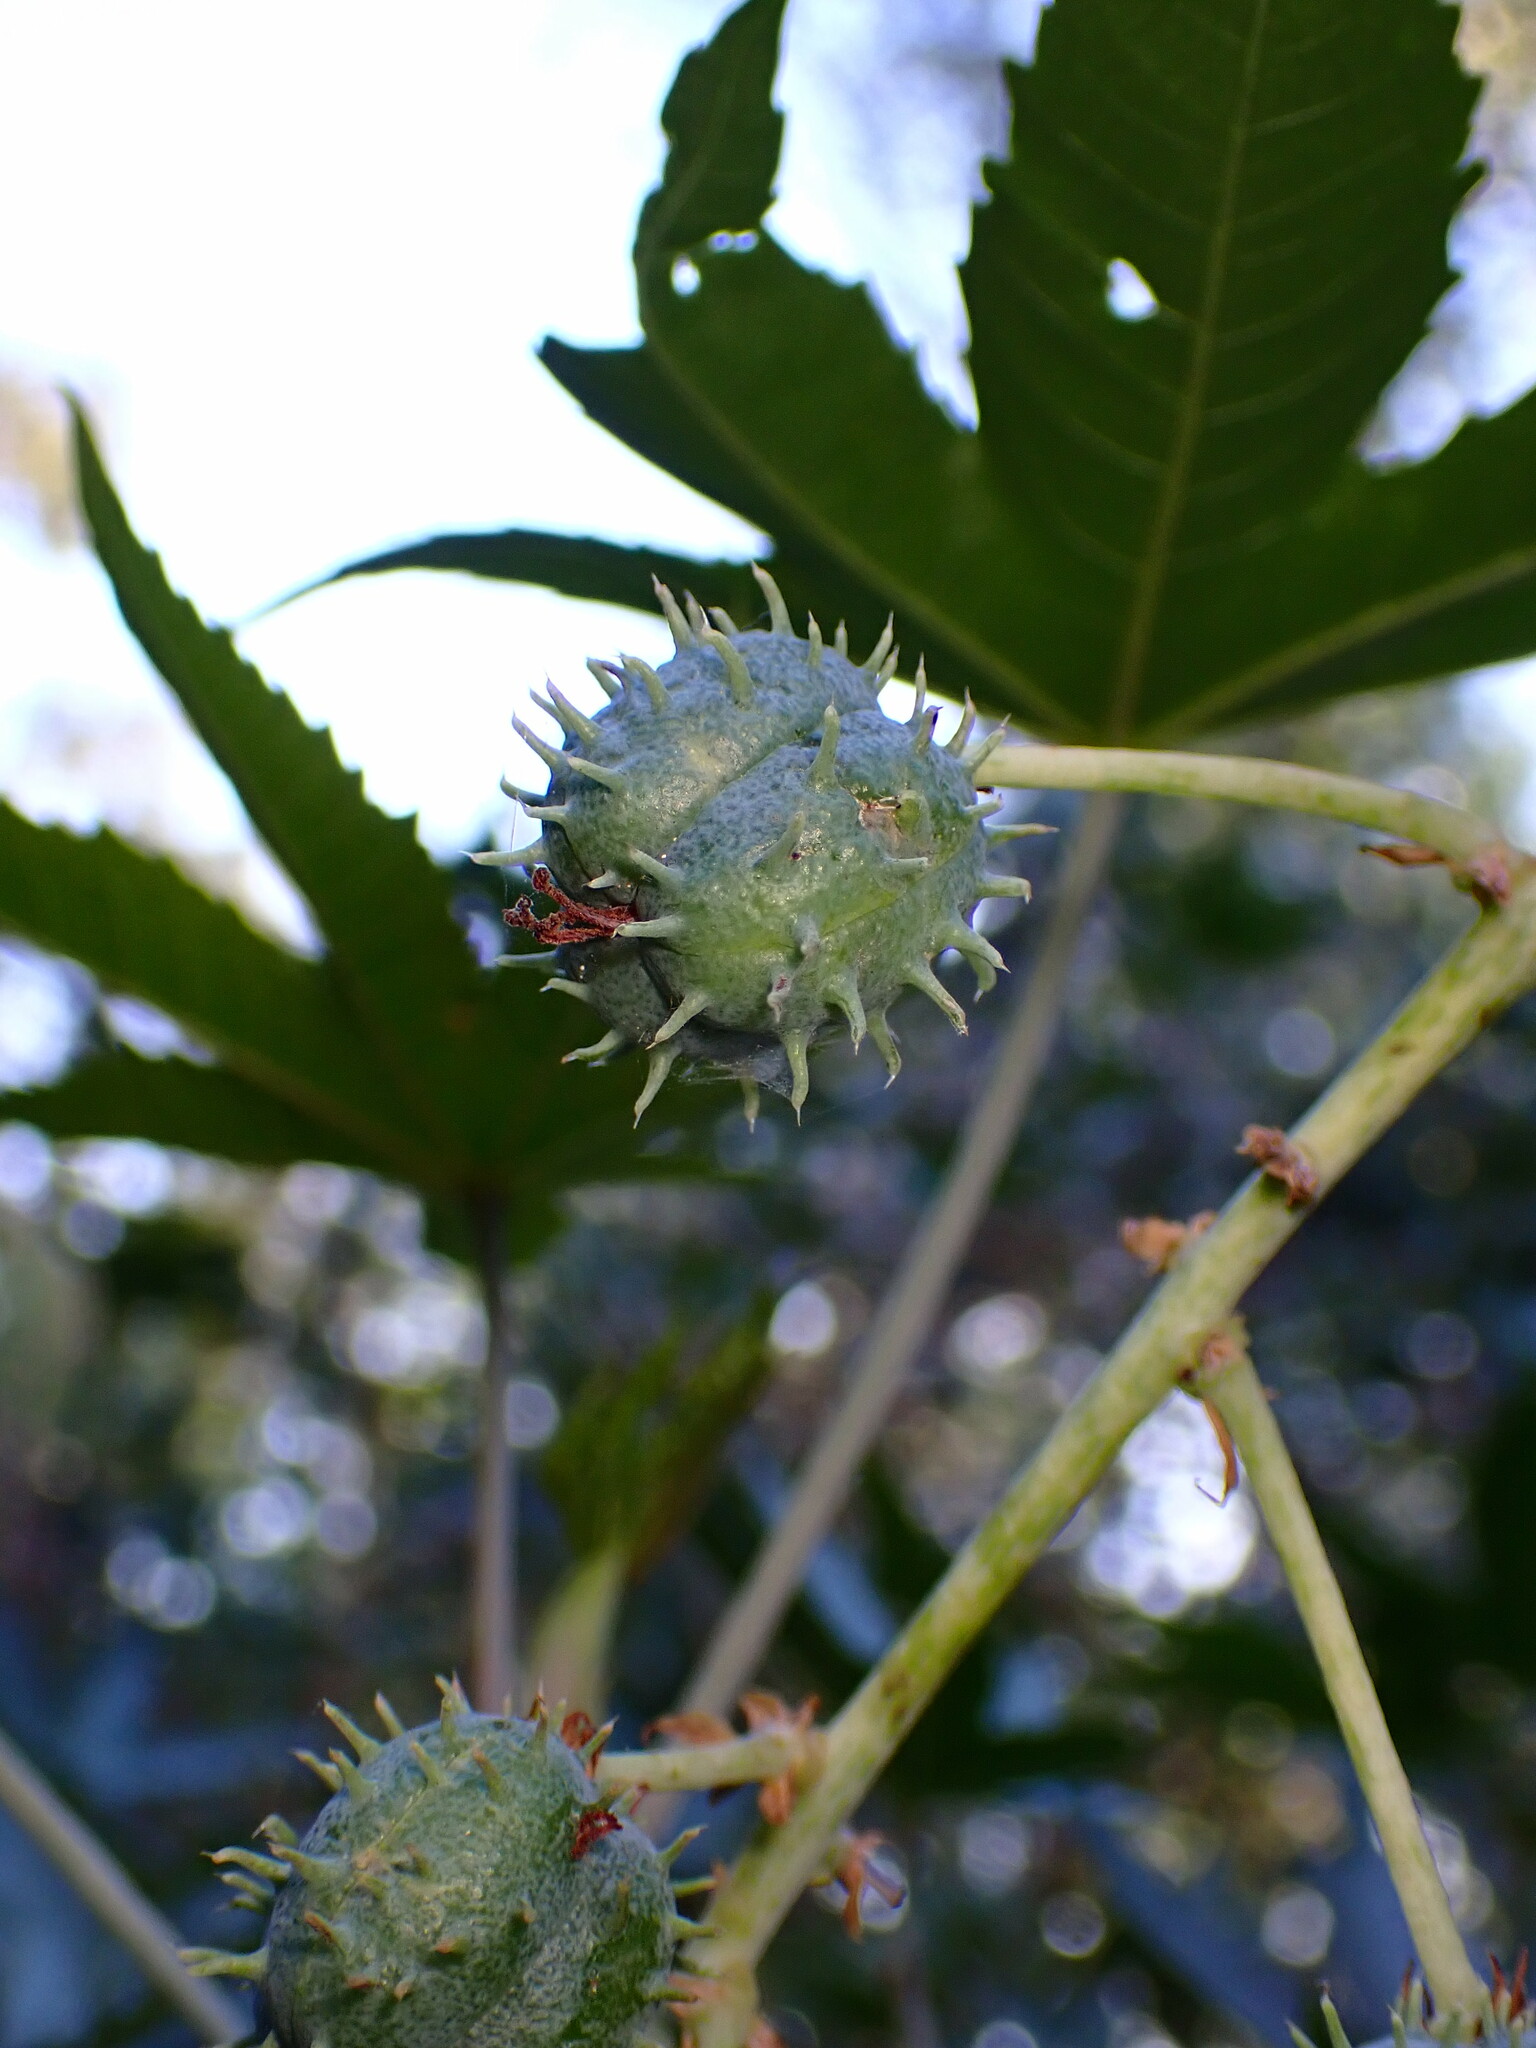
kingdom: Plantae
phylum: Tracheophyta
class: Magnoliopsida
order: Malpighiales
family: Euphorbiaceae
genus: Ricinus
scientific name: Ricinus communis
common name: Castor-oil-plant
